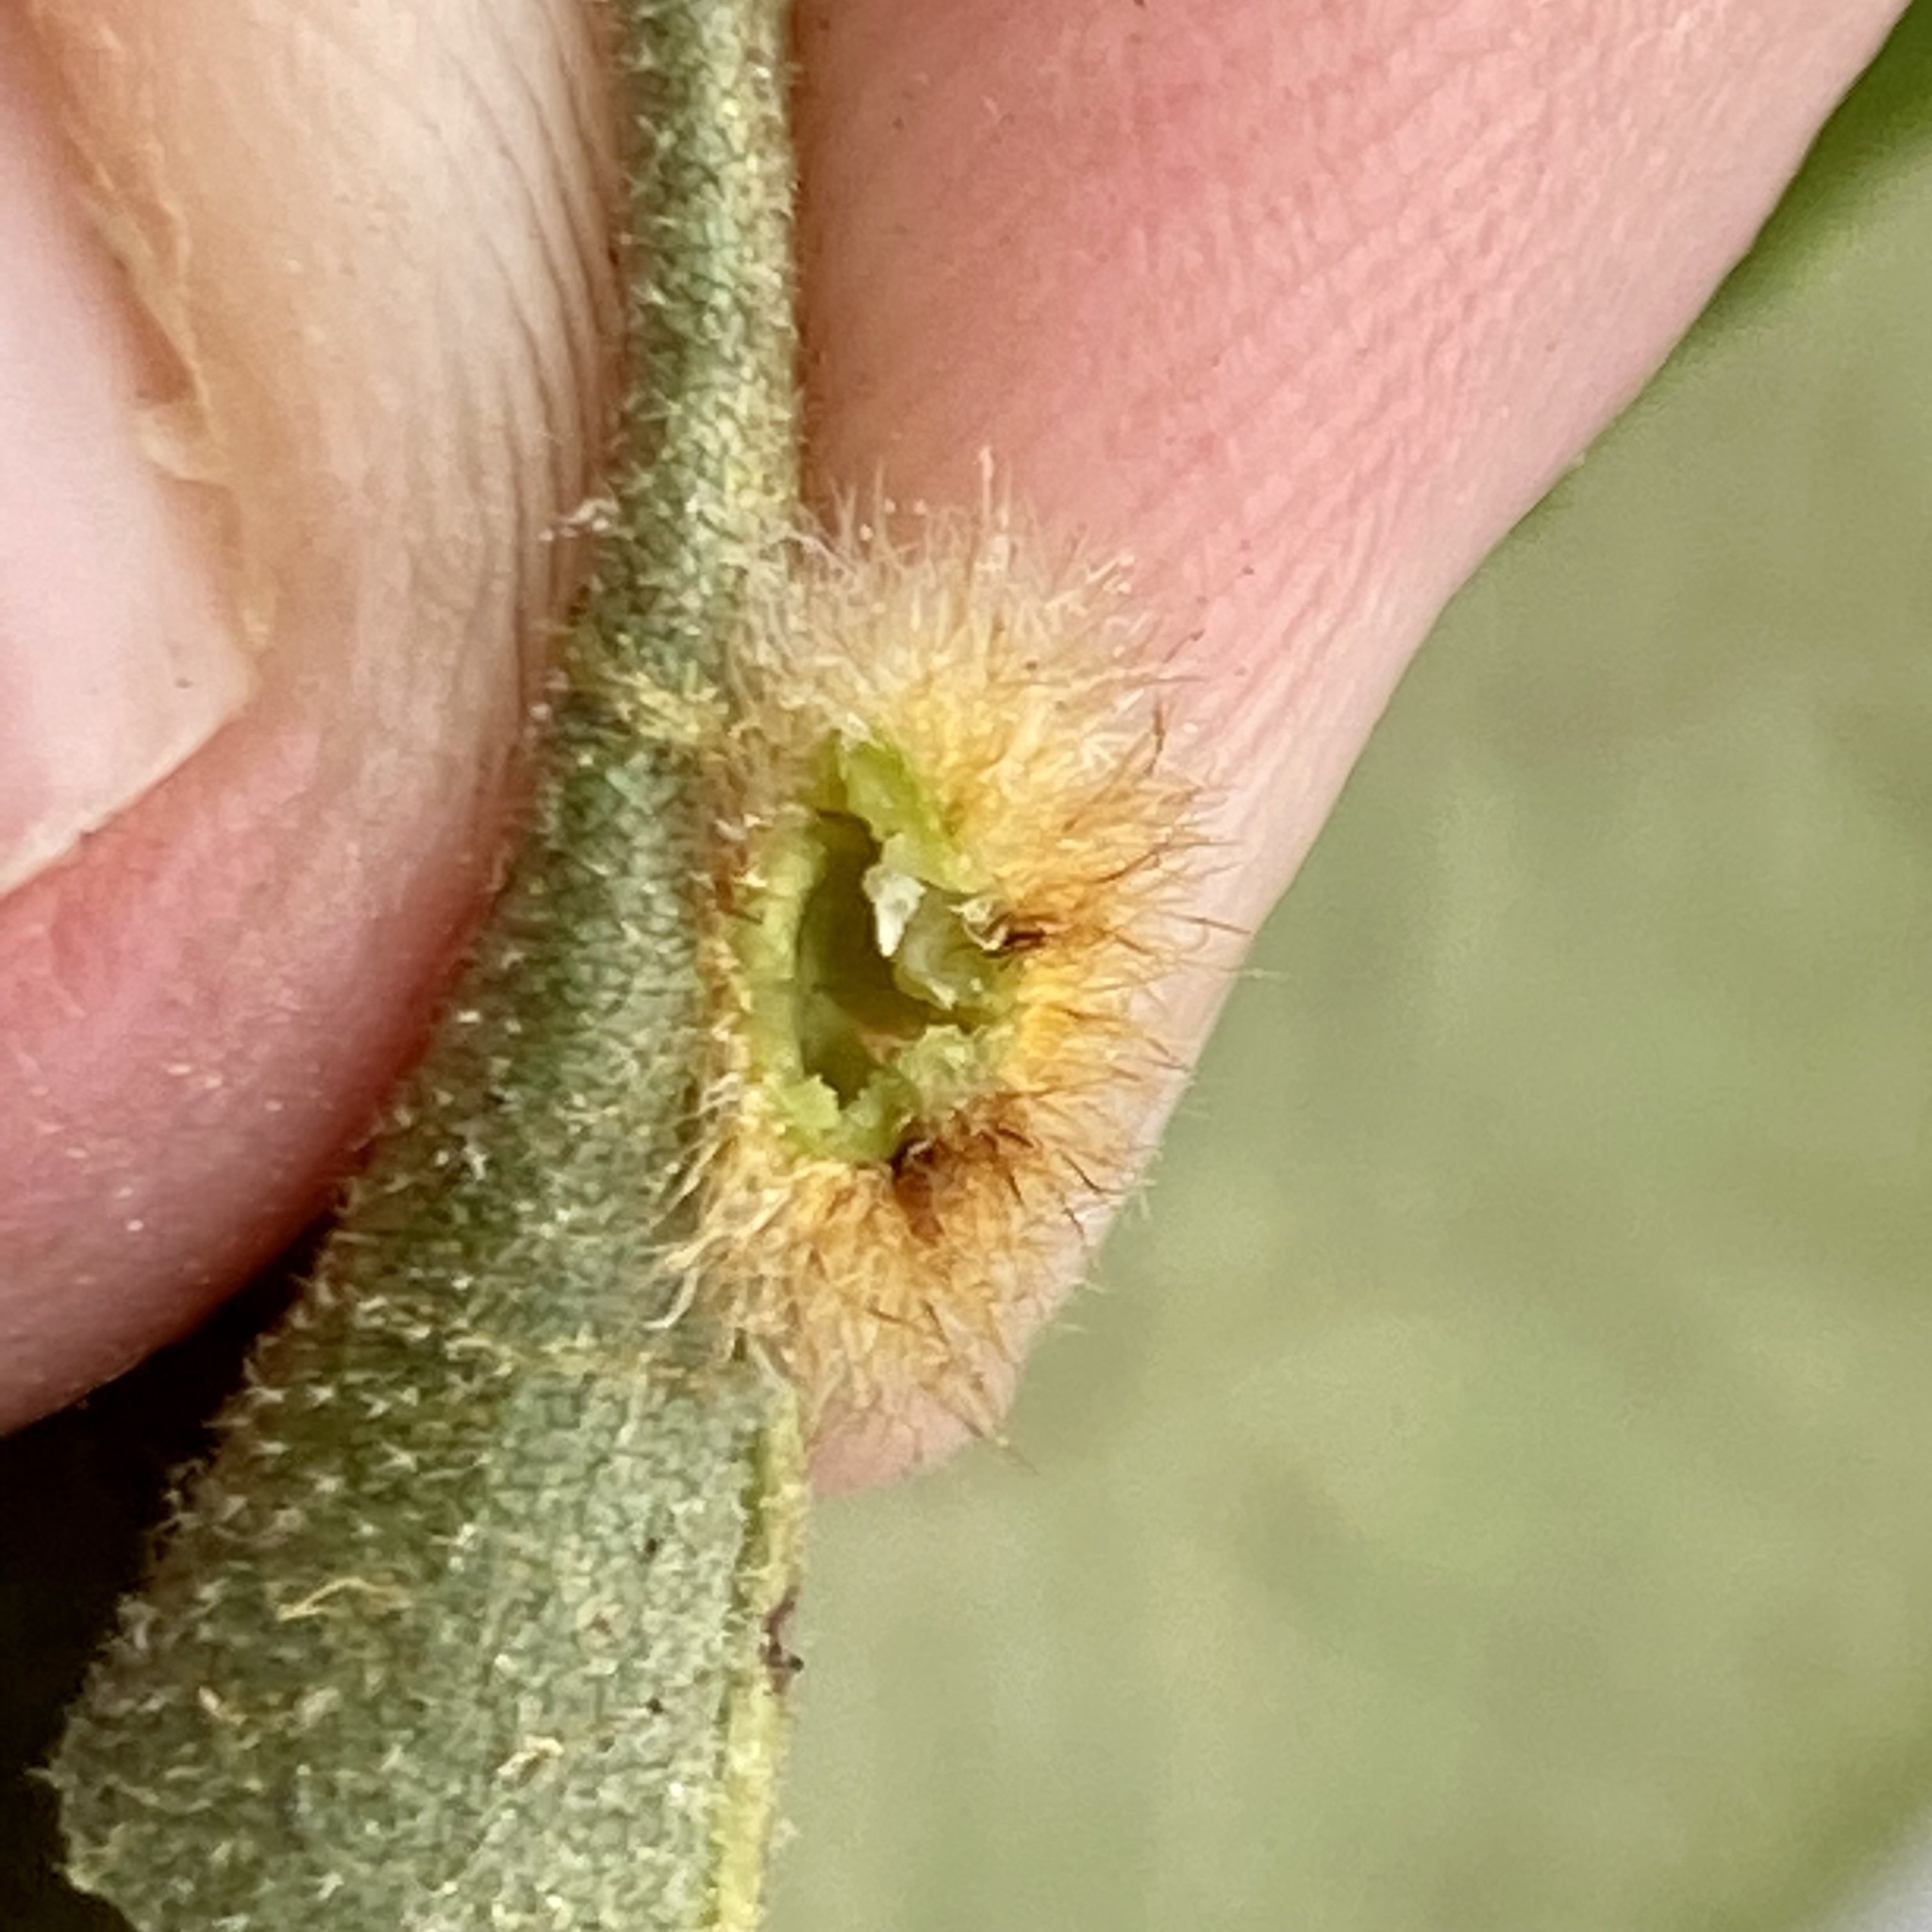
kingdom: Animalia
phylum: Arthropoda
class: Insecta
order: Diptera
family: Cecidomyiidae
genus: Caryomyia
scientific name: Caryomyia aggregata
